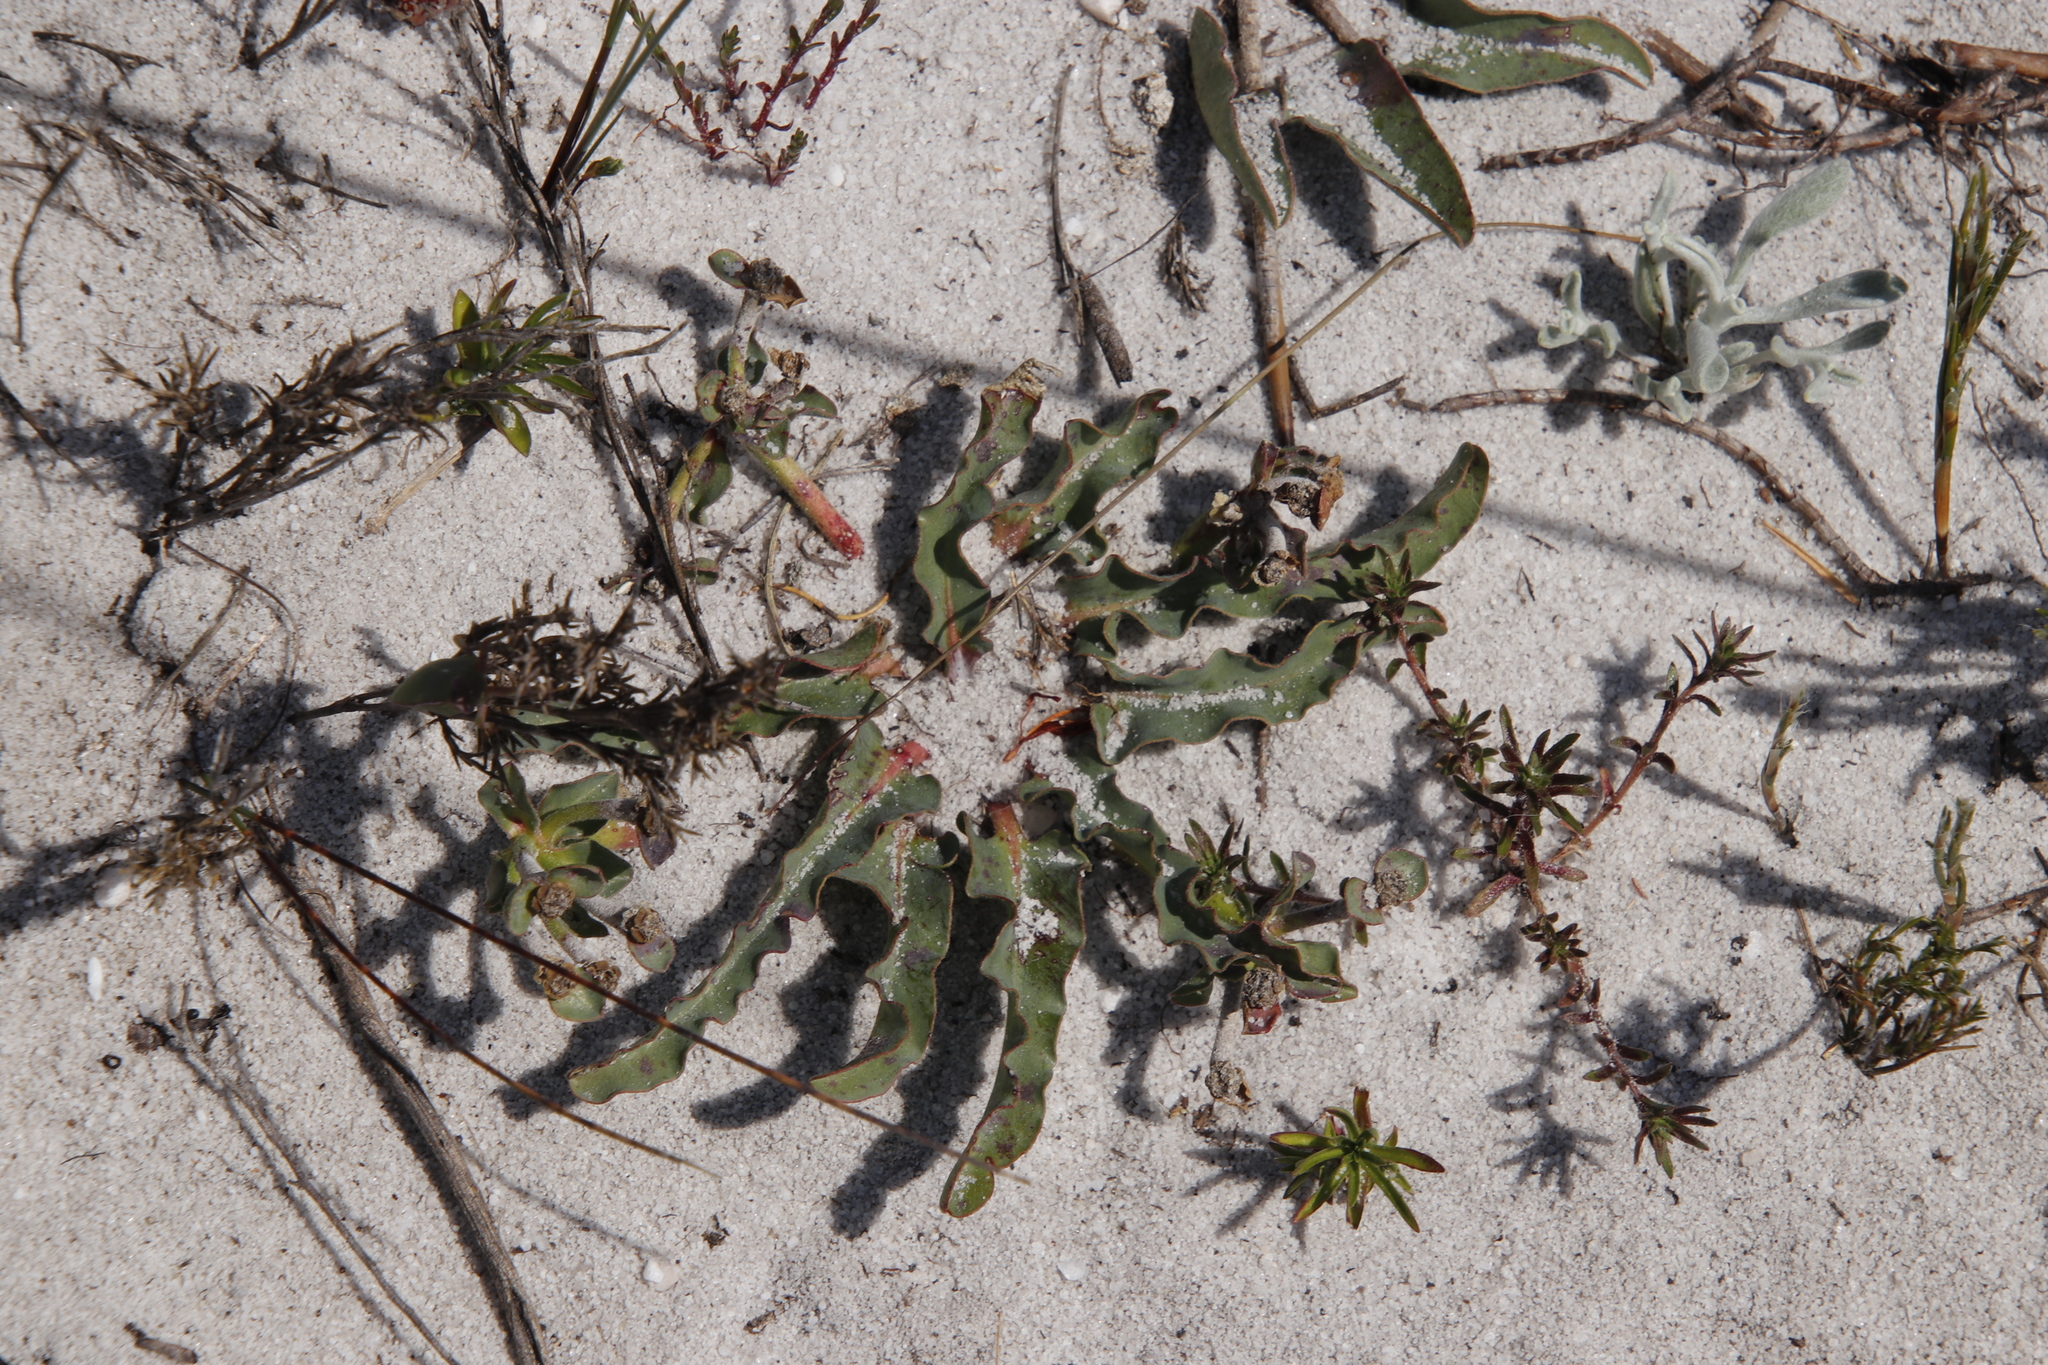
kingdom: Plantae
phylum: Tracheophyta
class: Magnoliopsida
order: Malpighiales
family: Euphorbiaceae
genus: Euphorbia
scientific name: Euphorbia tuberosa
